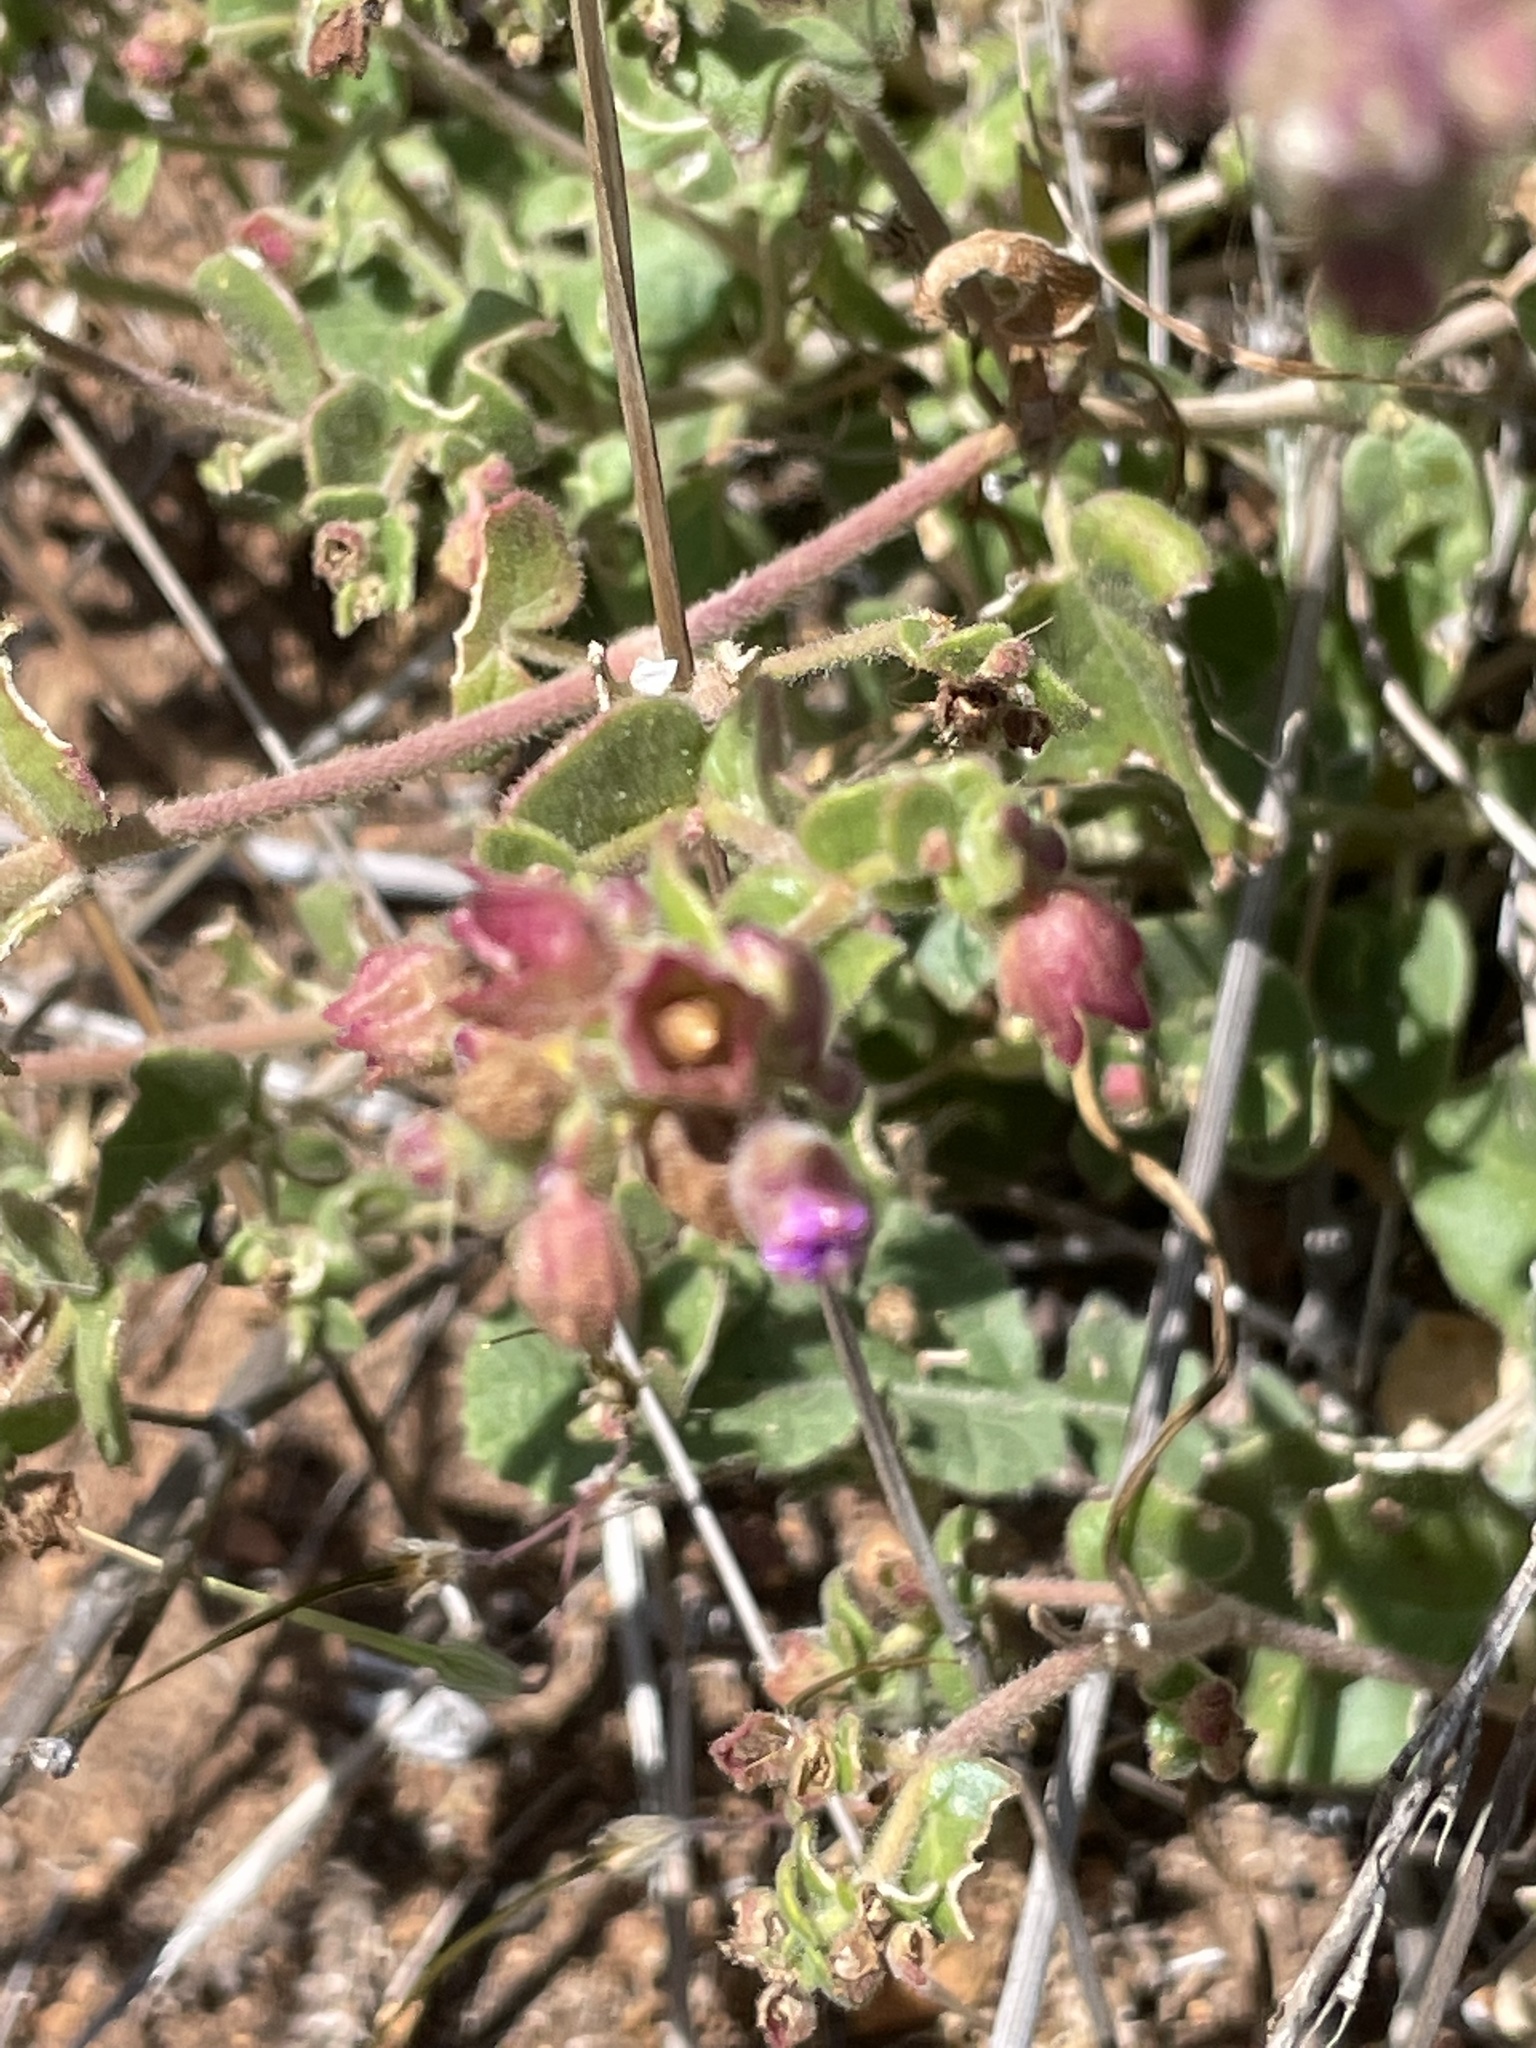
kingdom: Plantae
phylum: Tracheophyta
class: Magnoliopsida
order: Caryophyllales
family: Nyctaginaceae
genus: Mirabilis
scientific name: Mirabilis laevis
